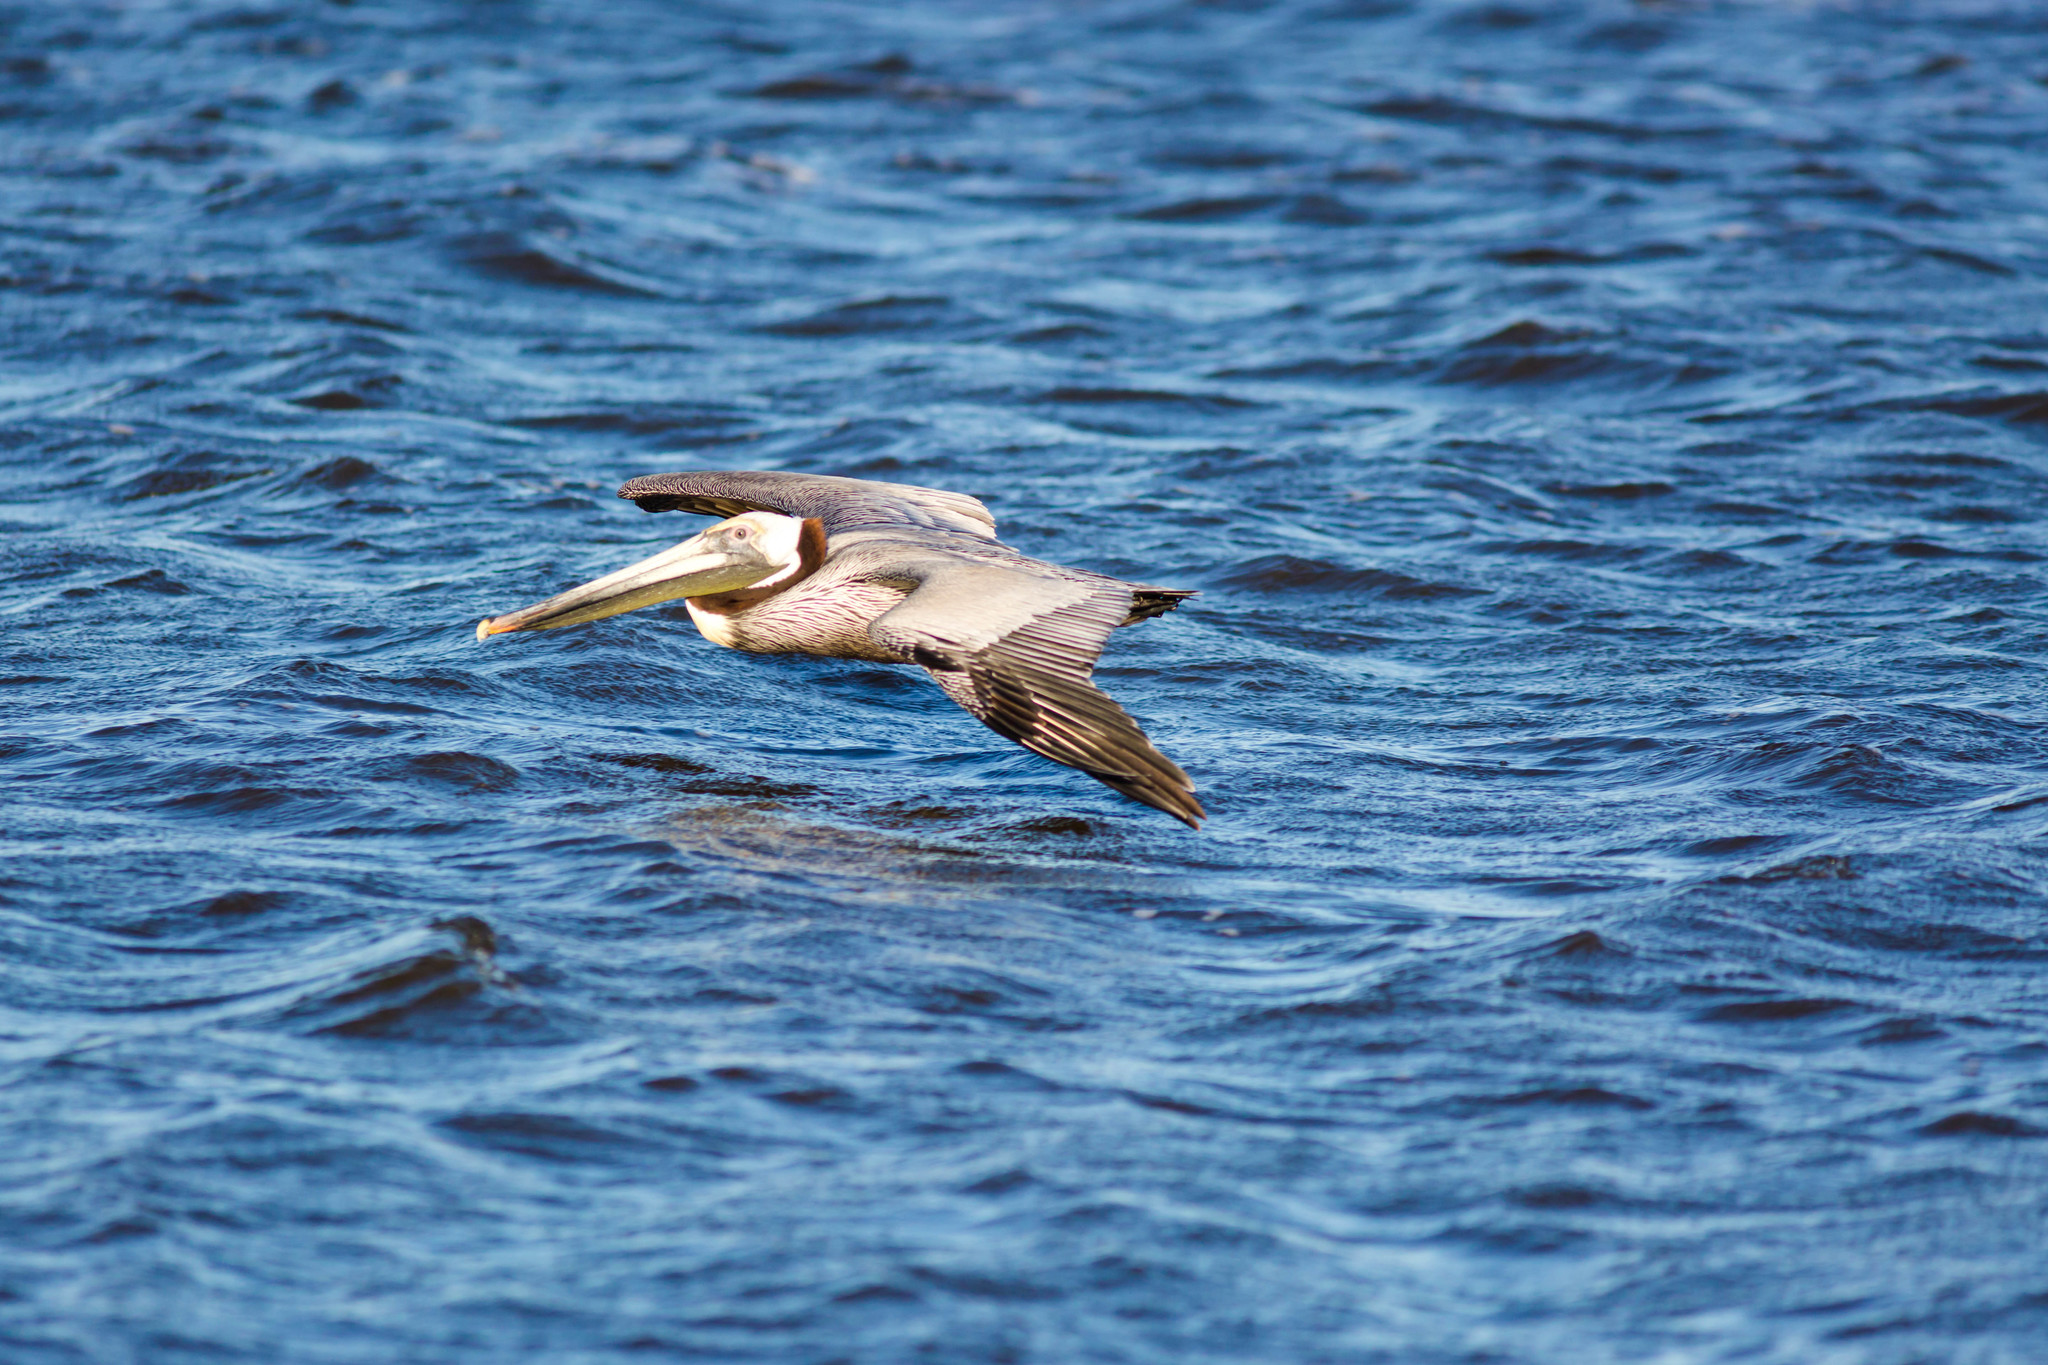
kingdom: Animalia
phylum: Chordata
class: Aves
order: Pelecaniformes
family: Pelecanidae
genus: Pelecanus
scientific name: Pelecanus occidentalis
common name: Brown pelican
